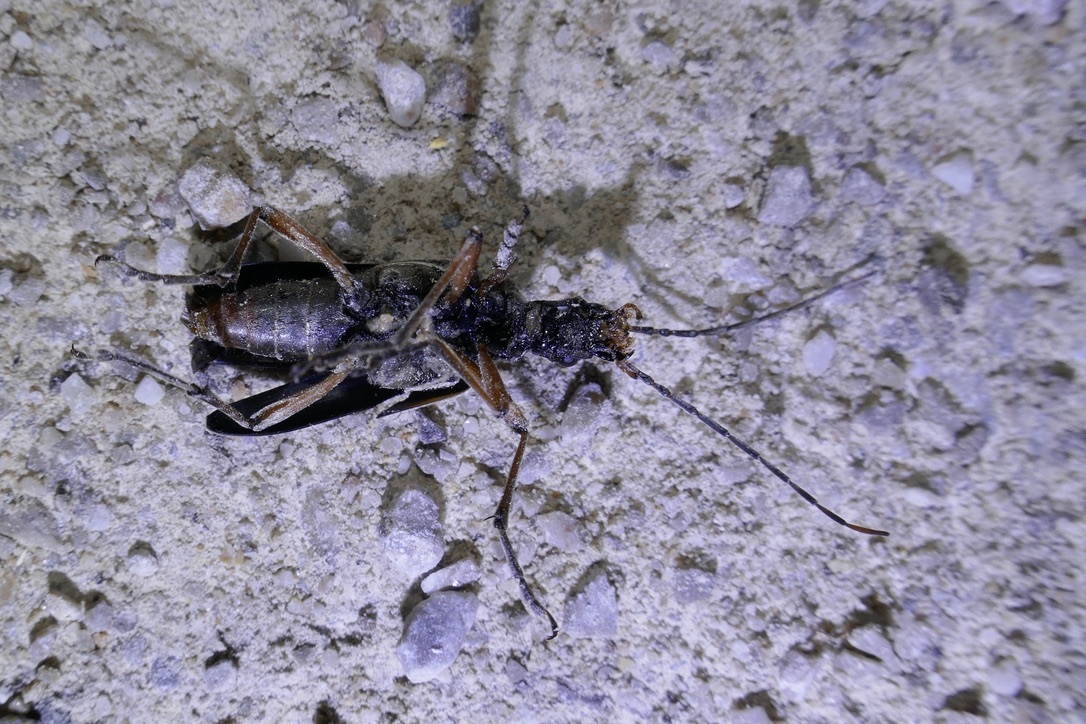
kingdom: Animalia
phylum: Arthropoda
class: Insecta
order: Coleoptera
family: Cerambycidae
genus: Stenocorus
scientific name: Stenocorus meridianus
